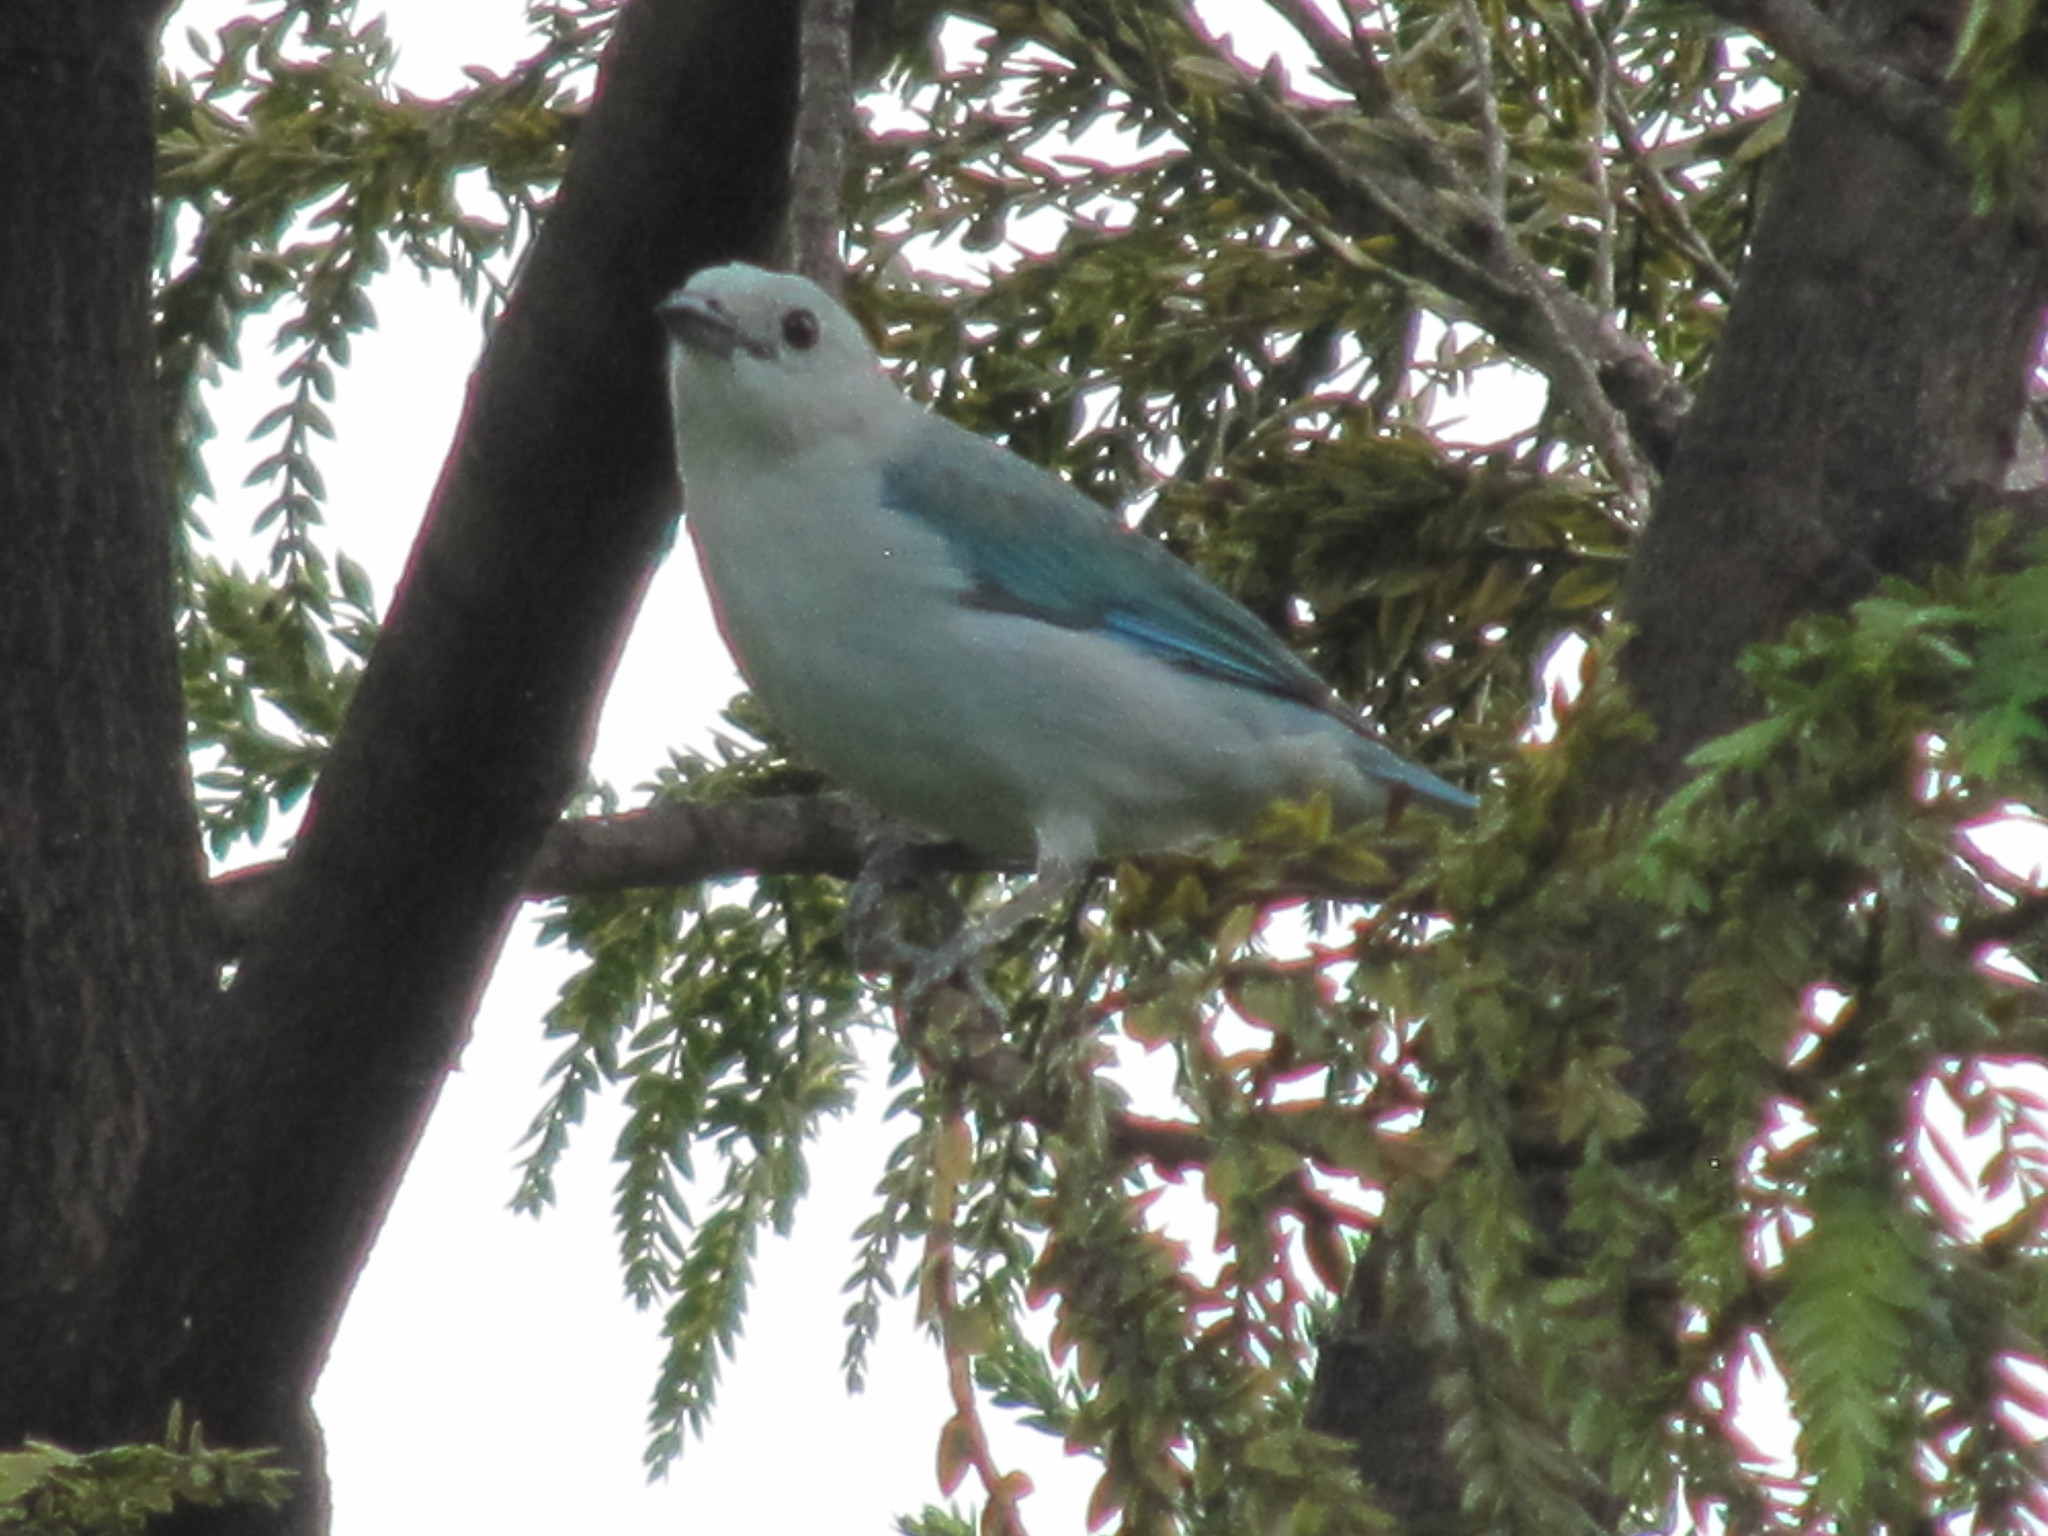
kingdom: Animalia
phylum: Chordata
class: Aves
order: Passeriformes
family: Thraupidae
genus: Thraupis
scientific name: Thraupis episcopus
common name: Blue-grey tanager
